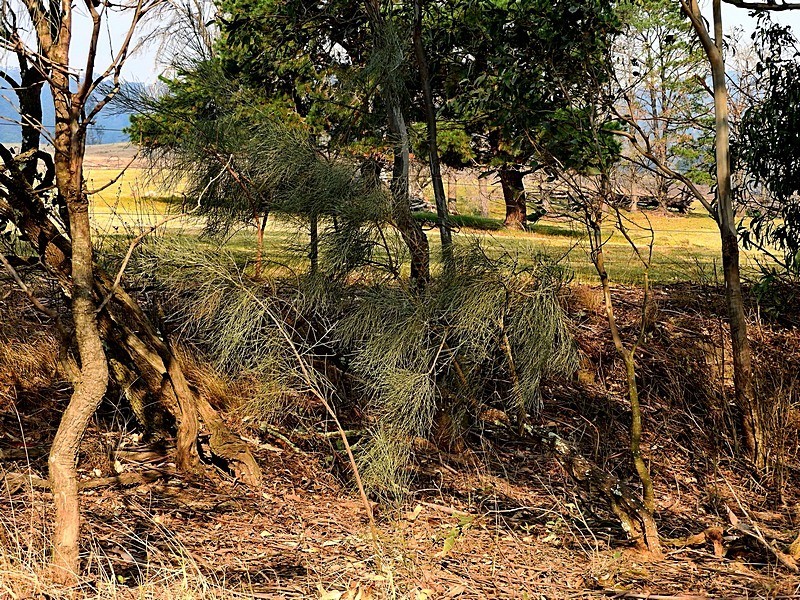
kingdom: Plantae
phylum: Tracheophyta
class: Magnoliopsida
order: Fabales
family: Fabaceae
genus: Jacksonia
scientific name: Jacksonia scoparia
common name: Dogwood
